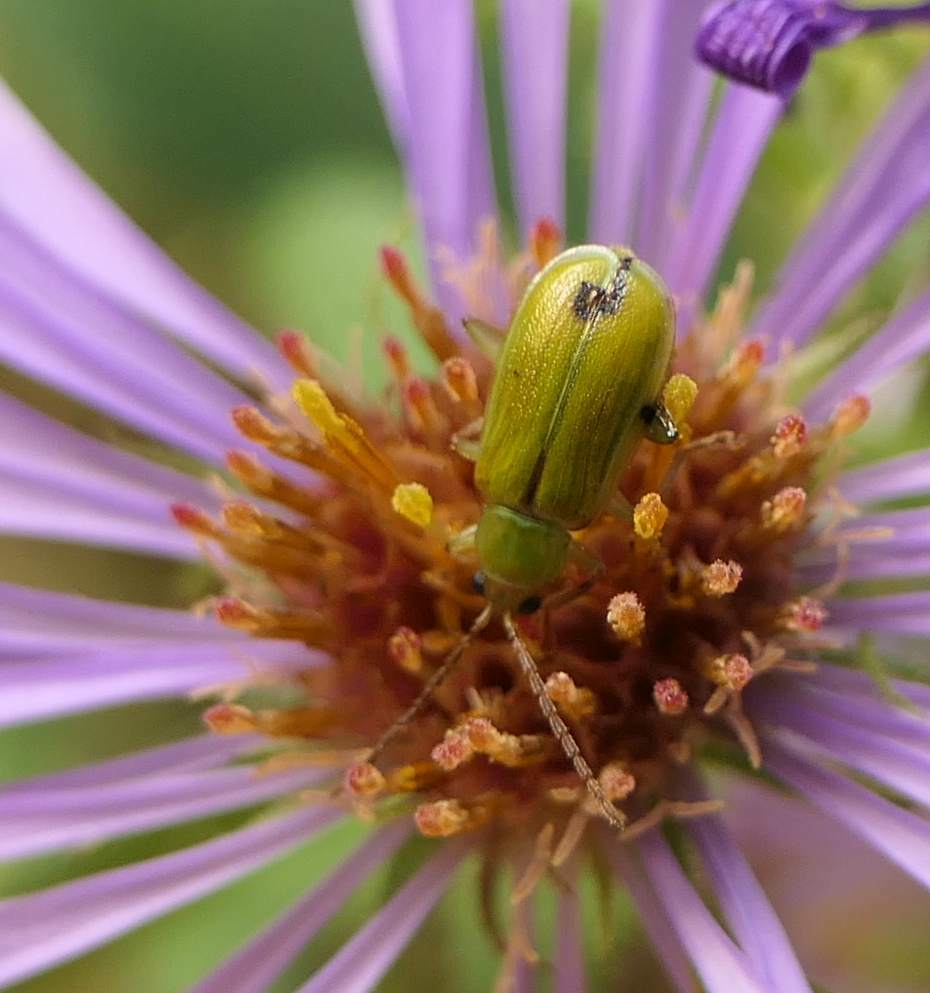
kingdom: Animalia
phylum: Arthropoda
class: Insecta
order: Coleoptera
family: Chrysomelidae
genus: Diabrotica
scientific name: Diabrotica barberi
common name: Northern corn rootworm
